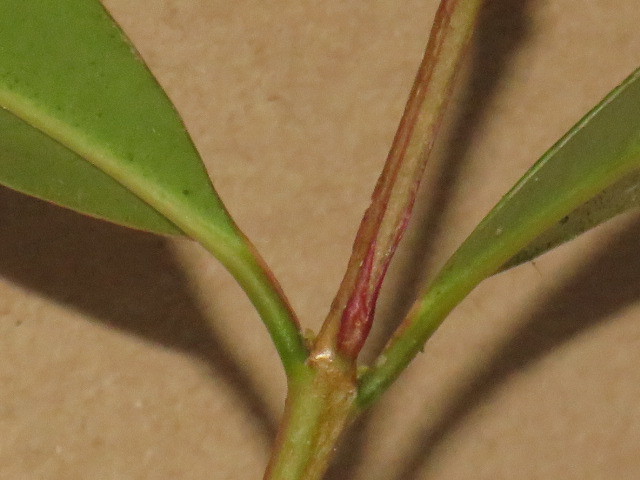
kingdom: Plantae
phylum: Tracheophyta
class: Magnoliopsida
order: Myrtales
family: Myrtaceae
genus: Syzygium
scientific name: Syzygium australe
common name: Australian brush-cherry
